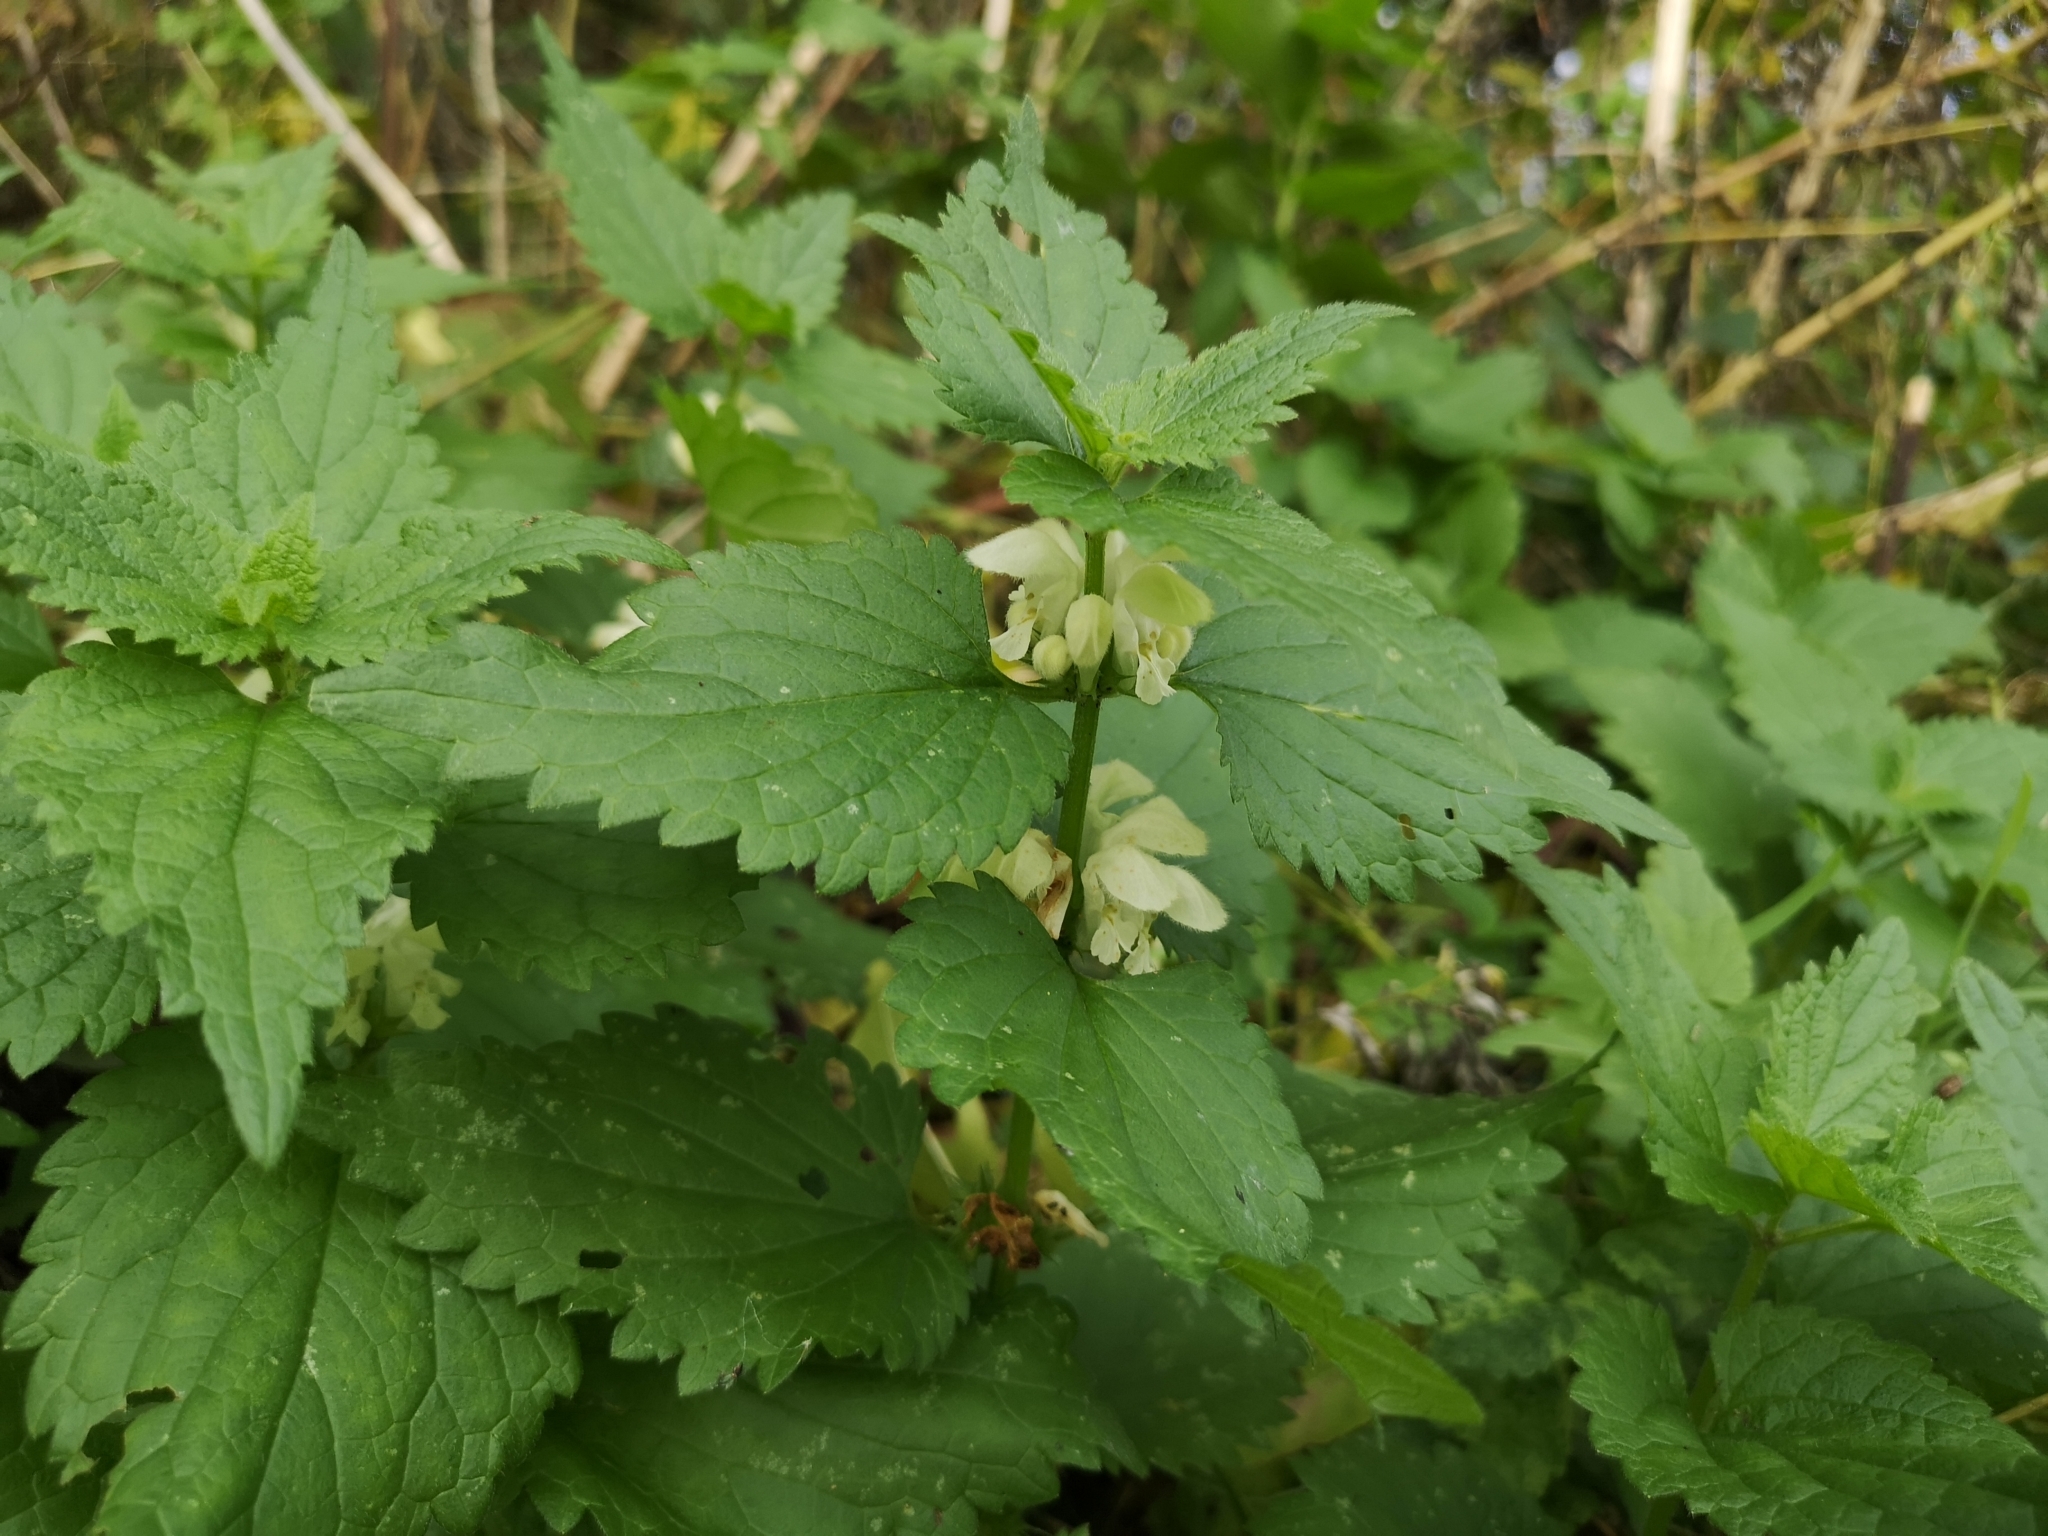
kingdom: Plantae
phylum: Tracheophyta
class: Magnoliopsida
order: Lamiales
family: Lamiaceae
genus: Lamium
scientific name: Lamium album
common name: White dead-nettle
